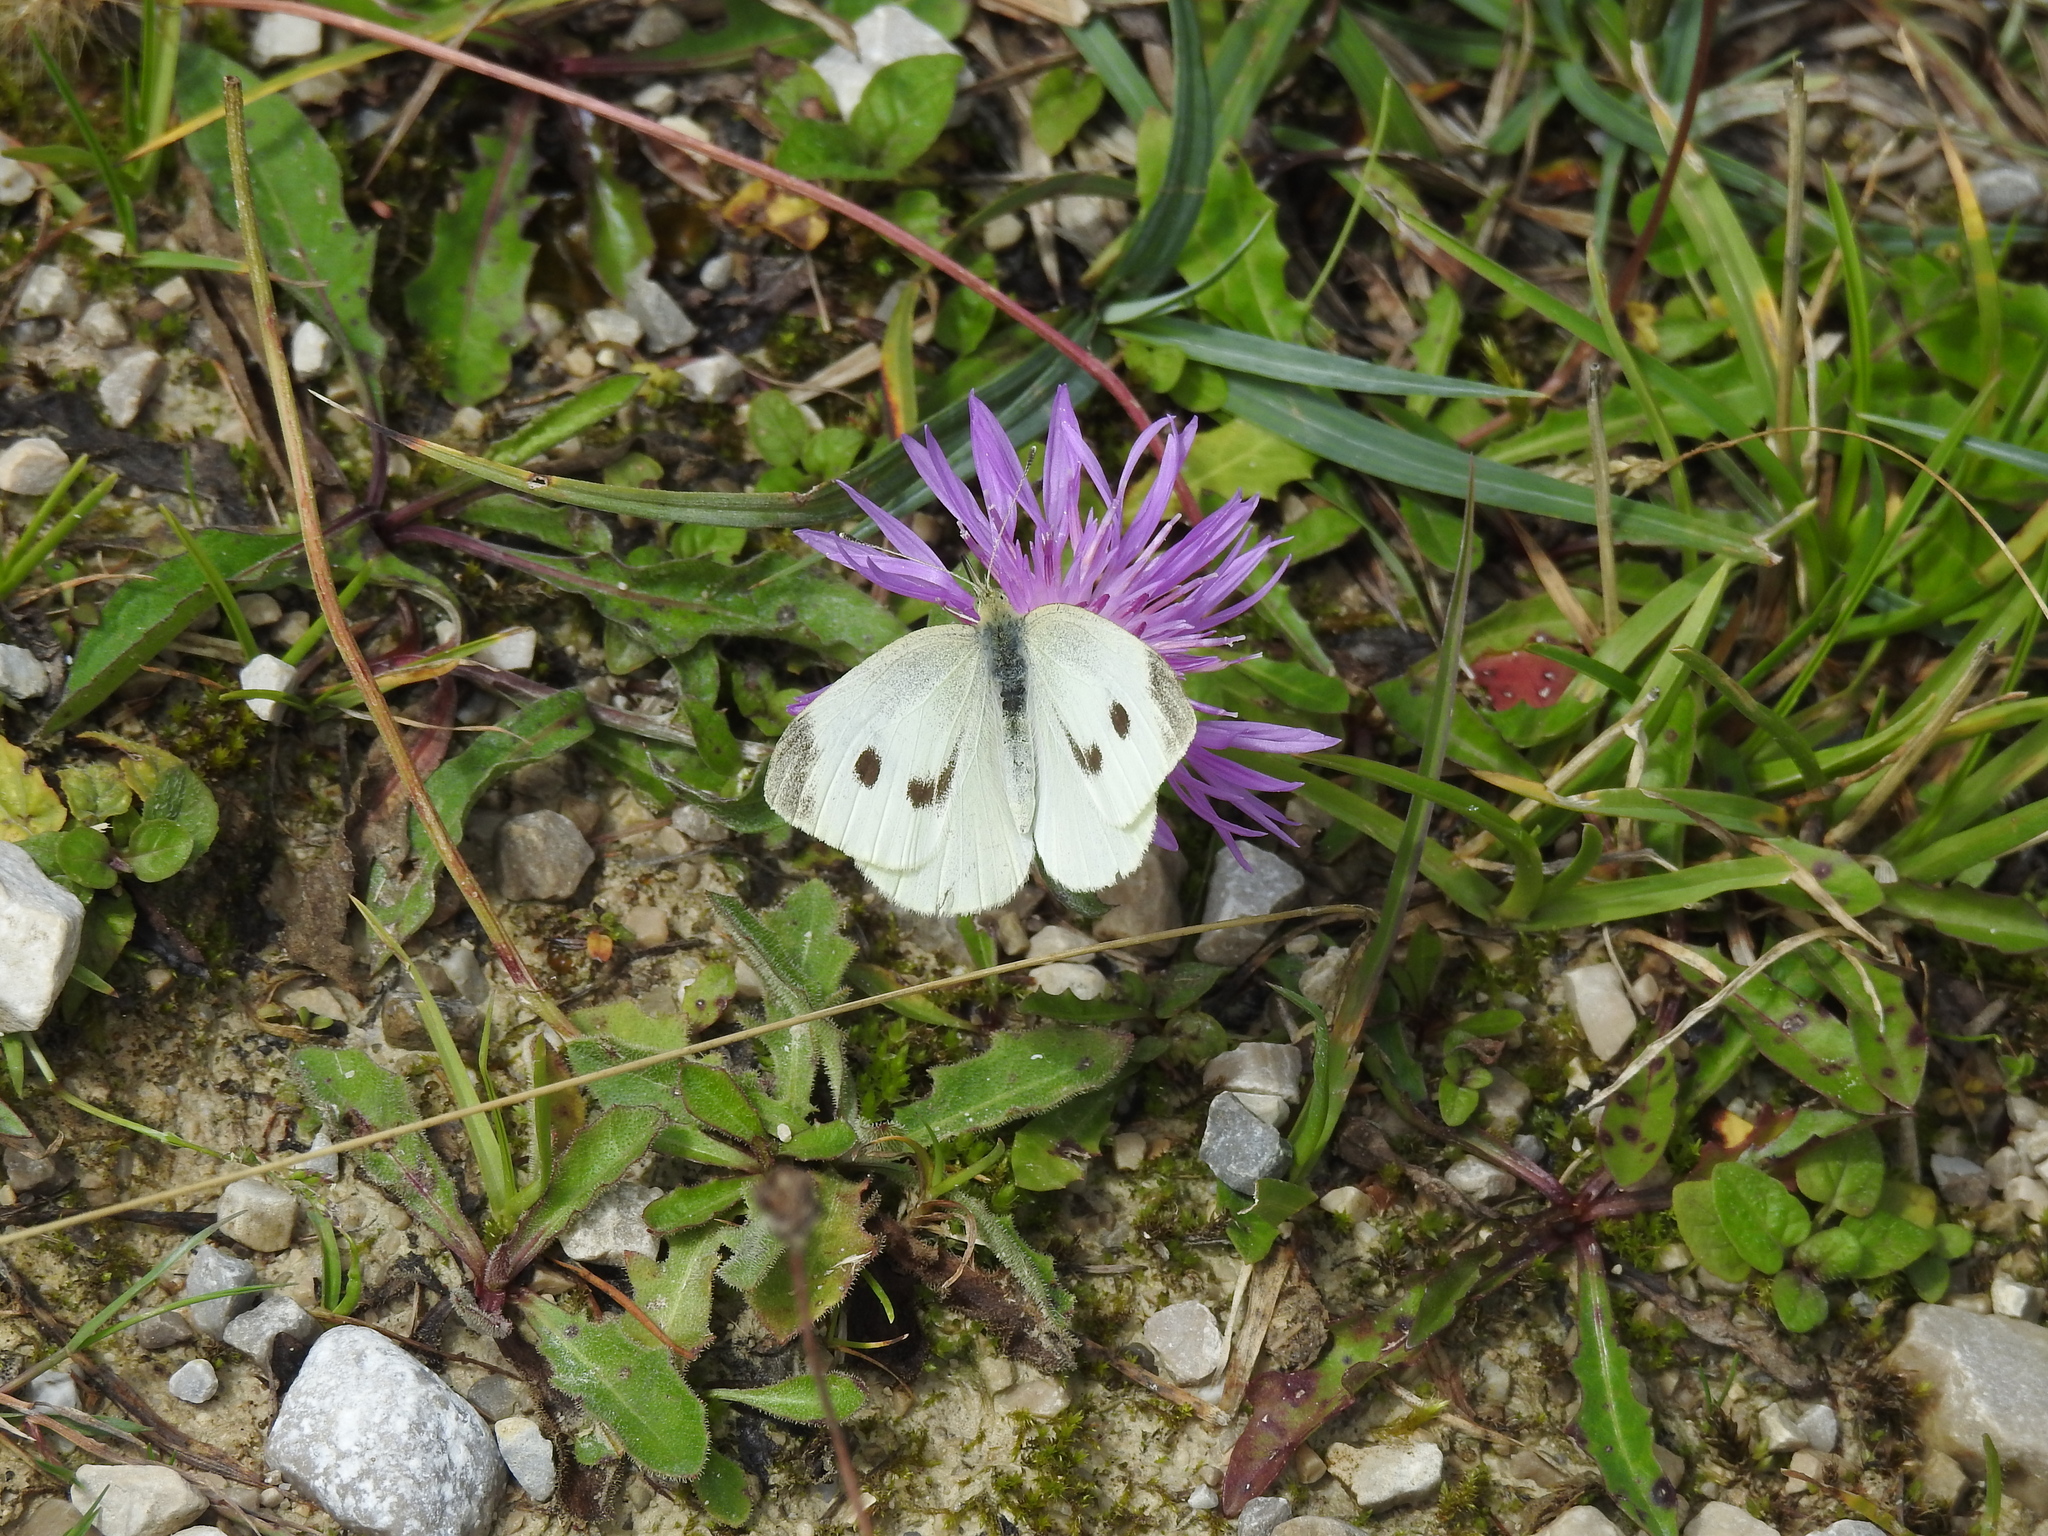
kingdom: Animalia
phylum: Arthropoda
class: Insecta
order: Lepidoptera
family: Pieridae
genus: Pieris
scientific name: Pieris rapae
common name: Small white
